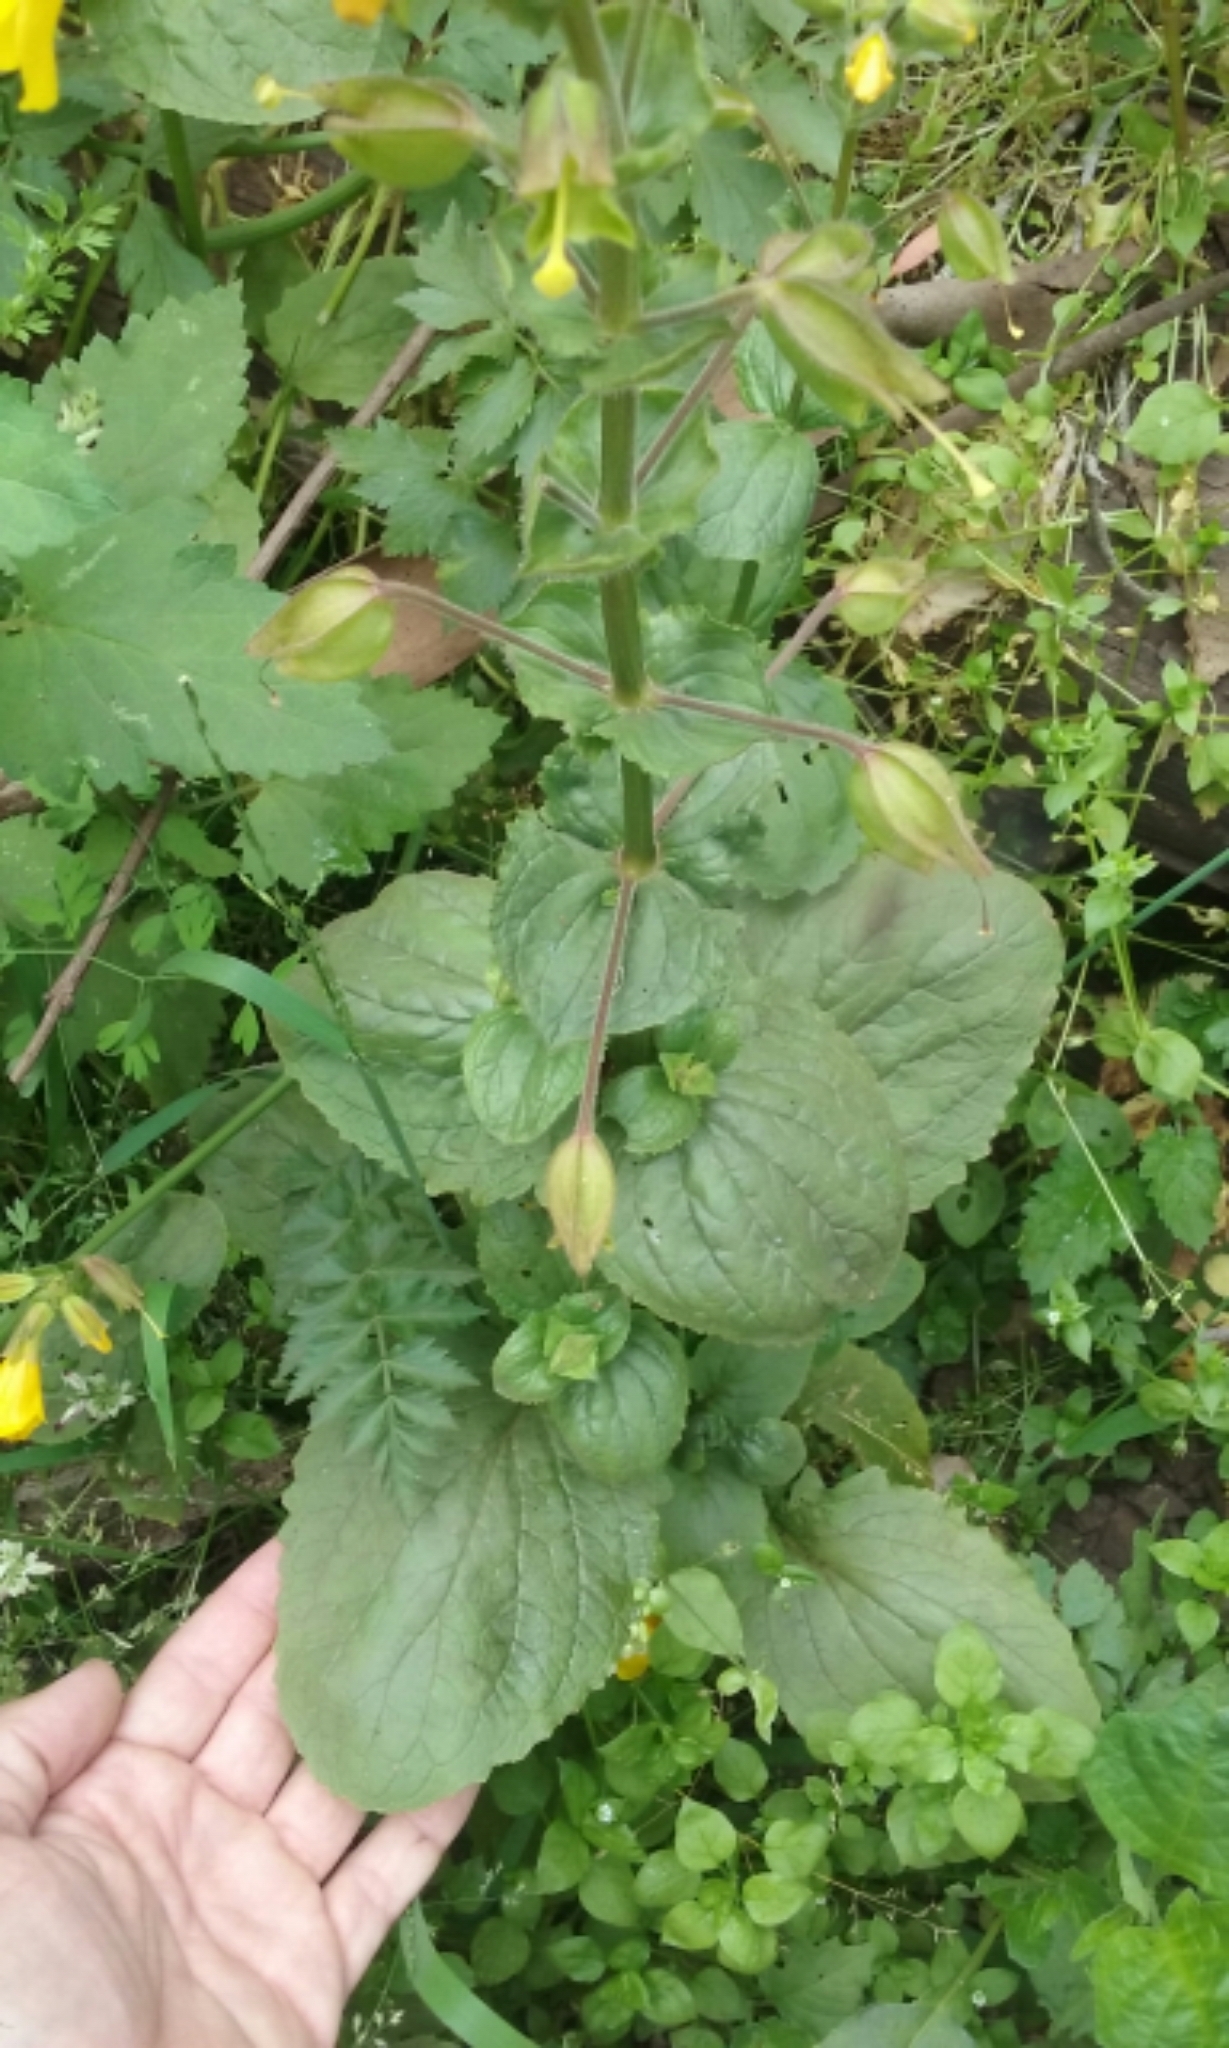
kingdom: Plantae
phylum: Tracheophyta
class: Magnoliopsida
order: Lamiales
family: Phrymaceae
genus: Erythranthe
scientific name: Erythranthe guttata
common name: Monkeyflower
